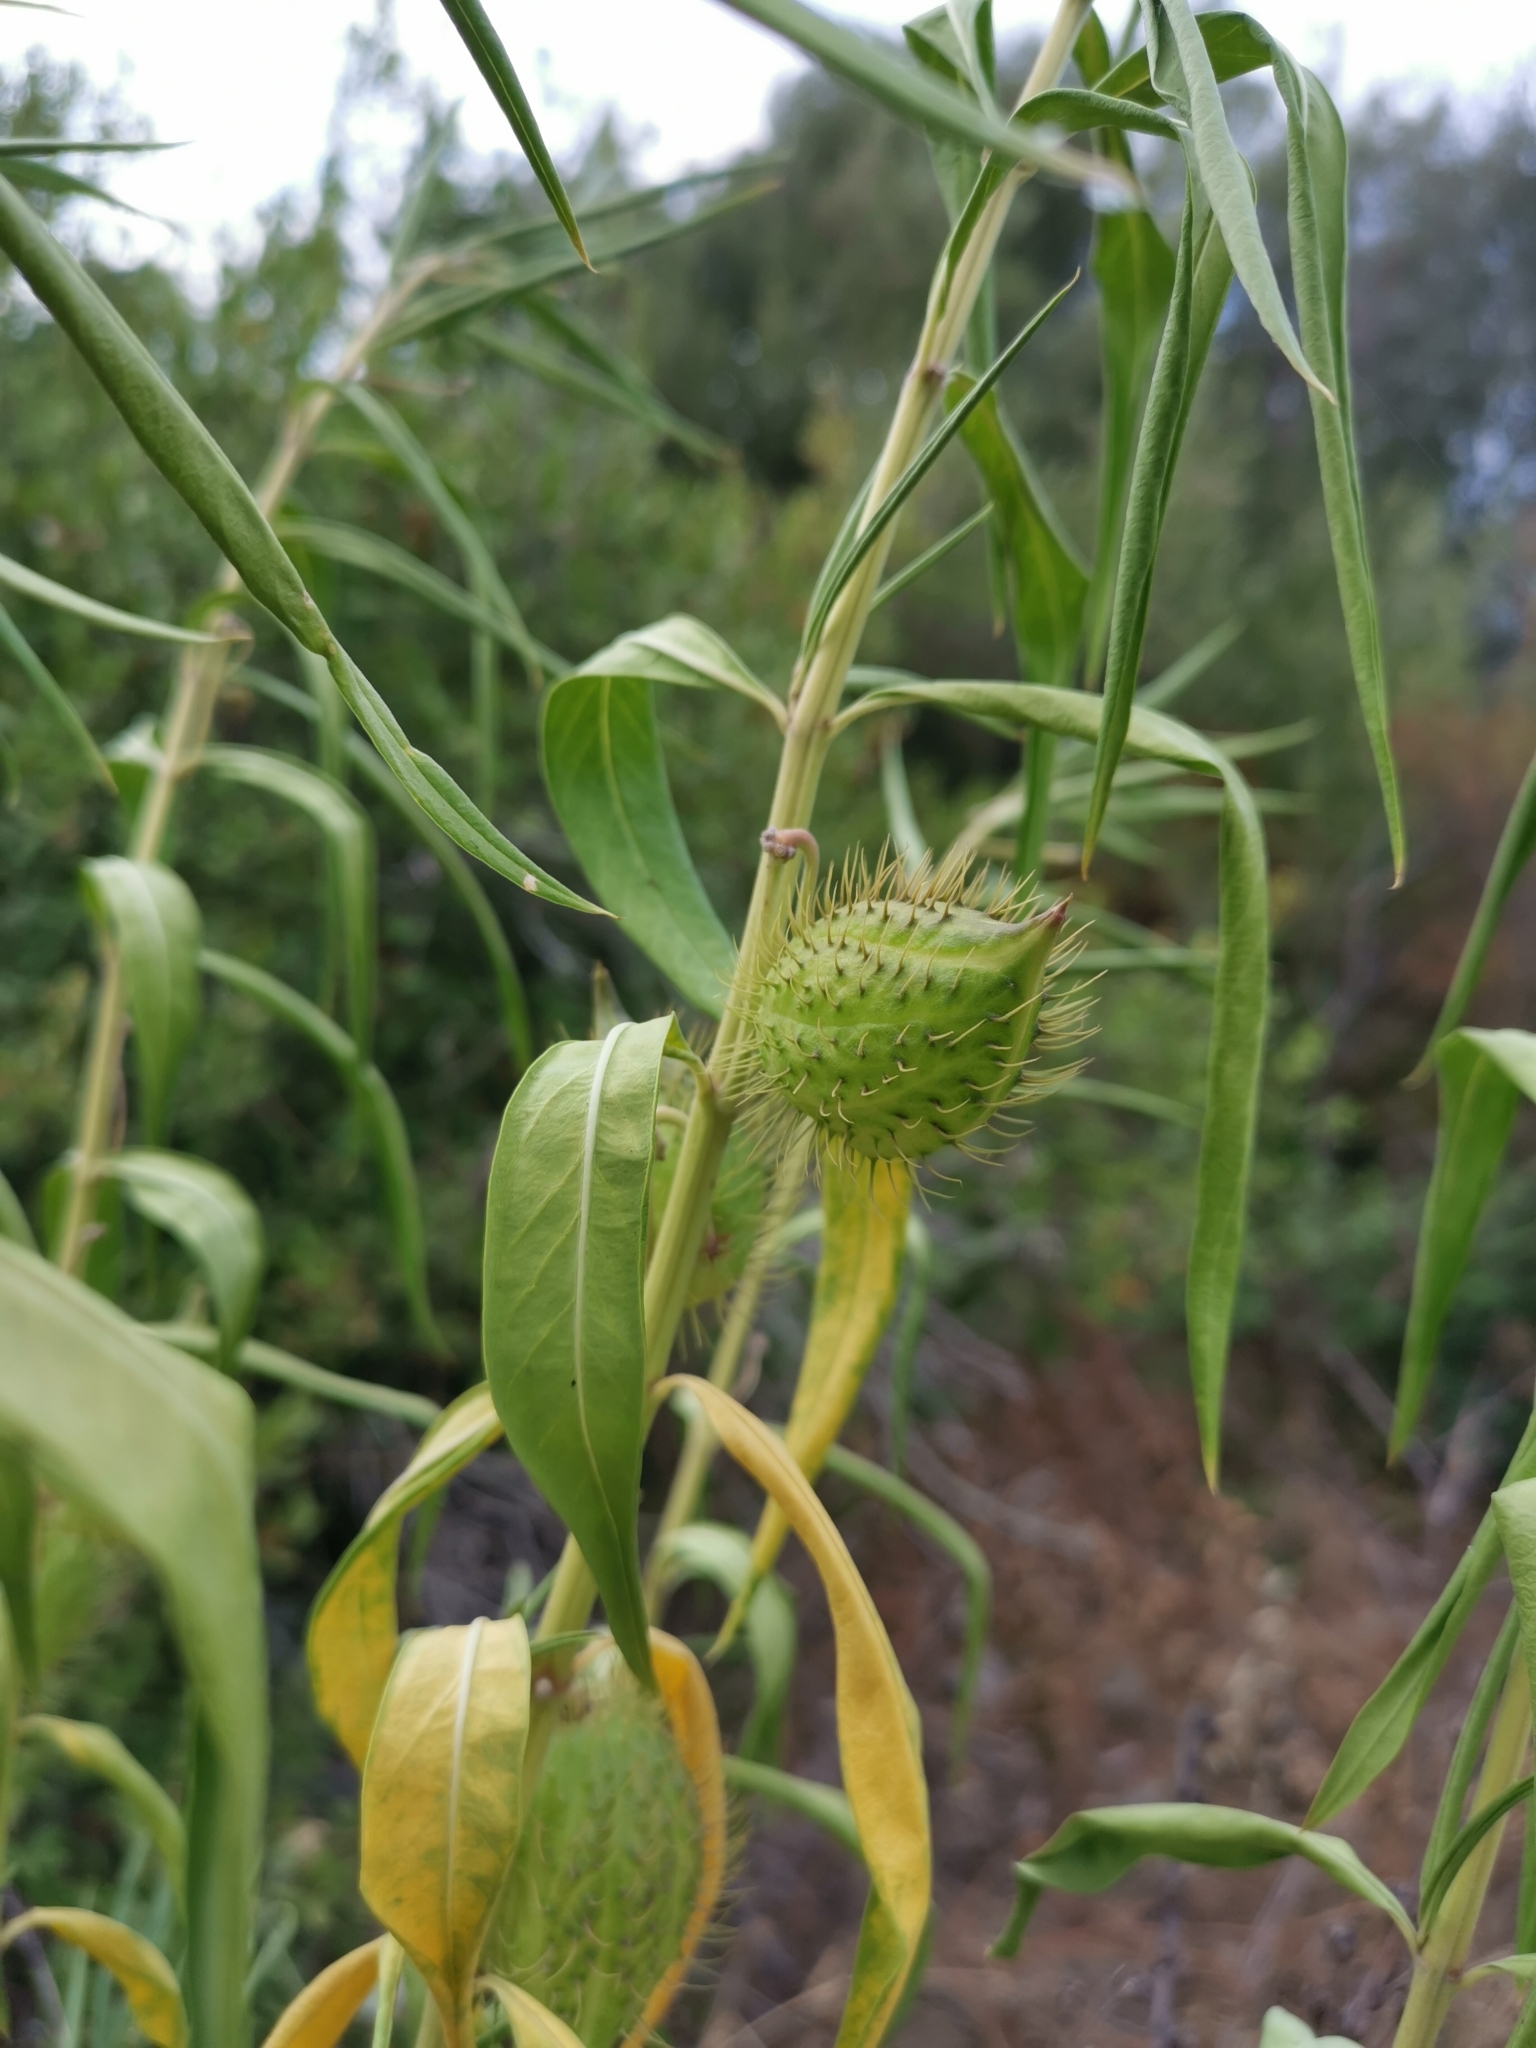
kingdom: Plantae
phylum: Tracheophyta
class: Magnoliopsida
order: Gentianales
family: Apocynaceae
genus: Gomphocarpus
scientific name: Gomphocarpus fruticosus
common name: Milkweed
